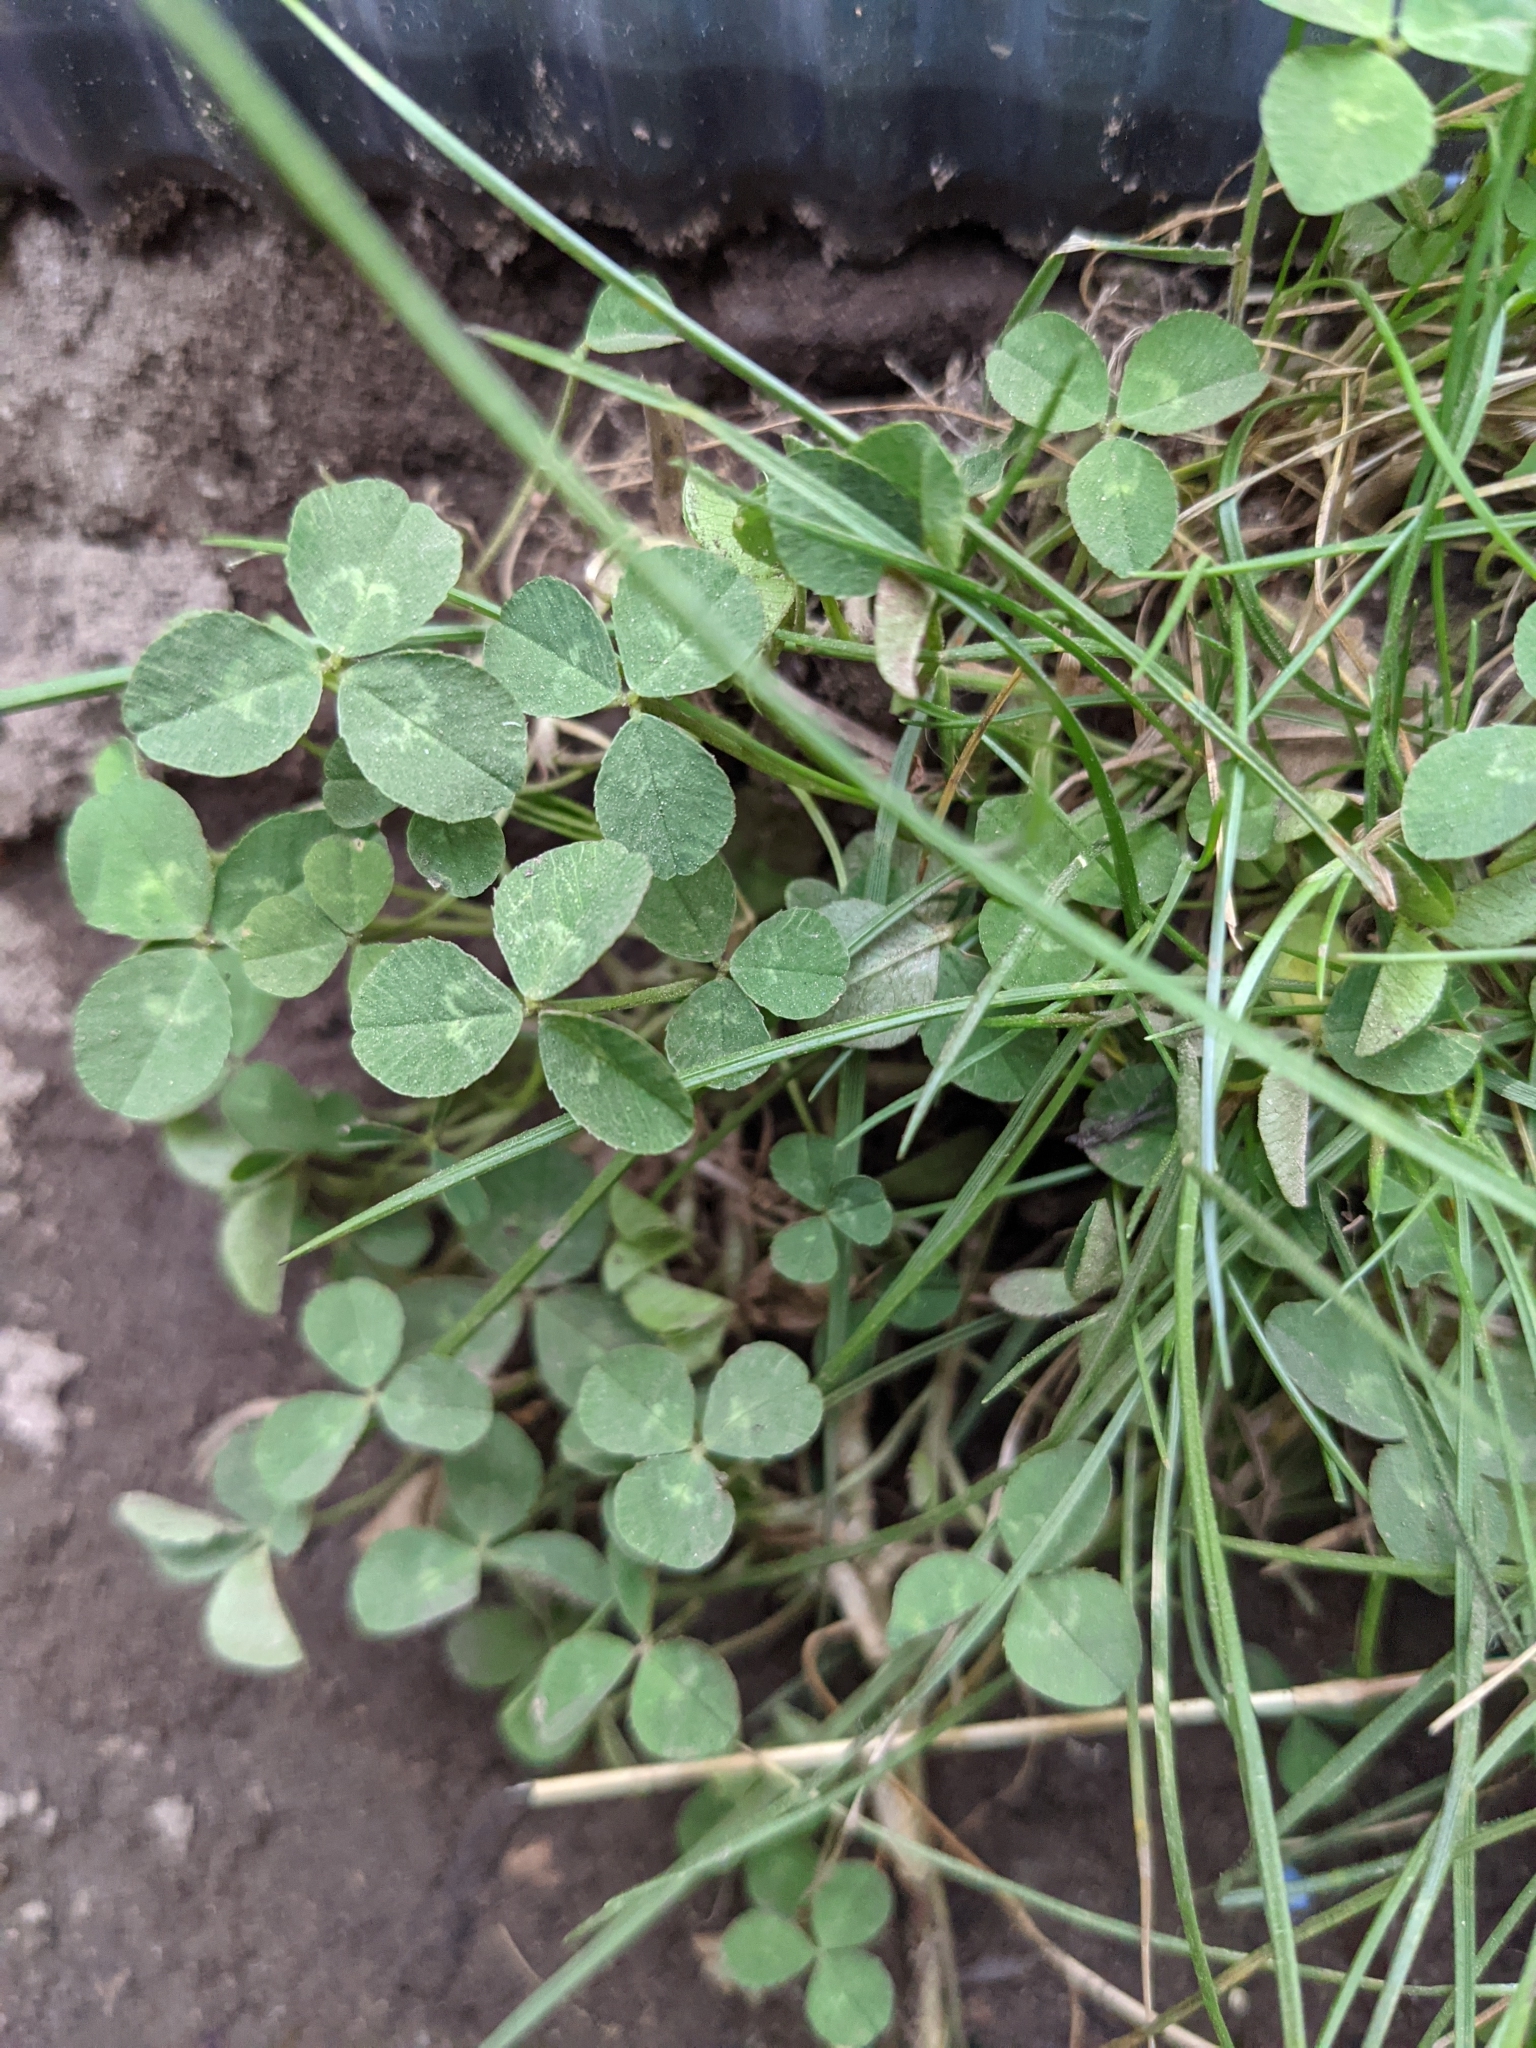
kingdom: Plantae
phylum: Tracheophyta
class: Magnoliopsida
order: Fabales
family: Fabaceae
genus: Trifolium
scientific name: Trifolium repens
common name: White clover
